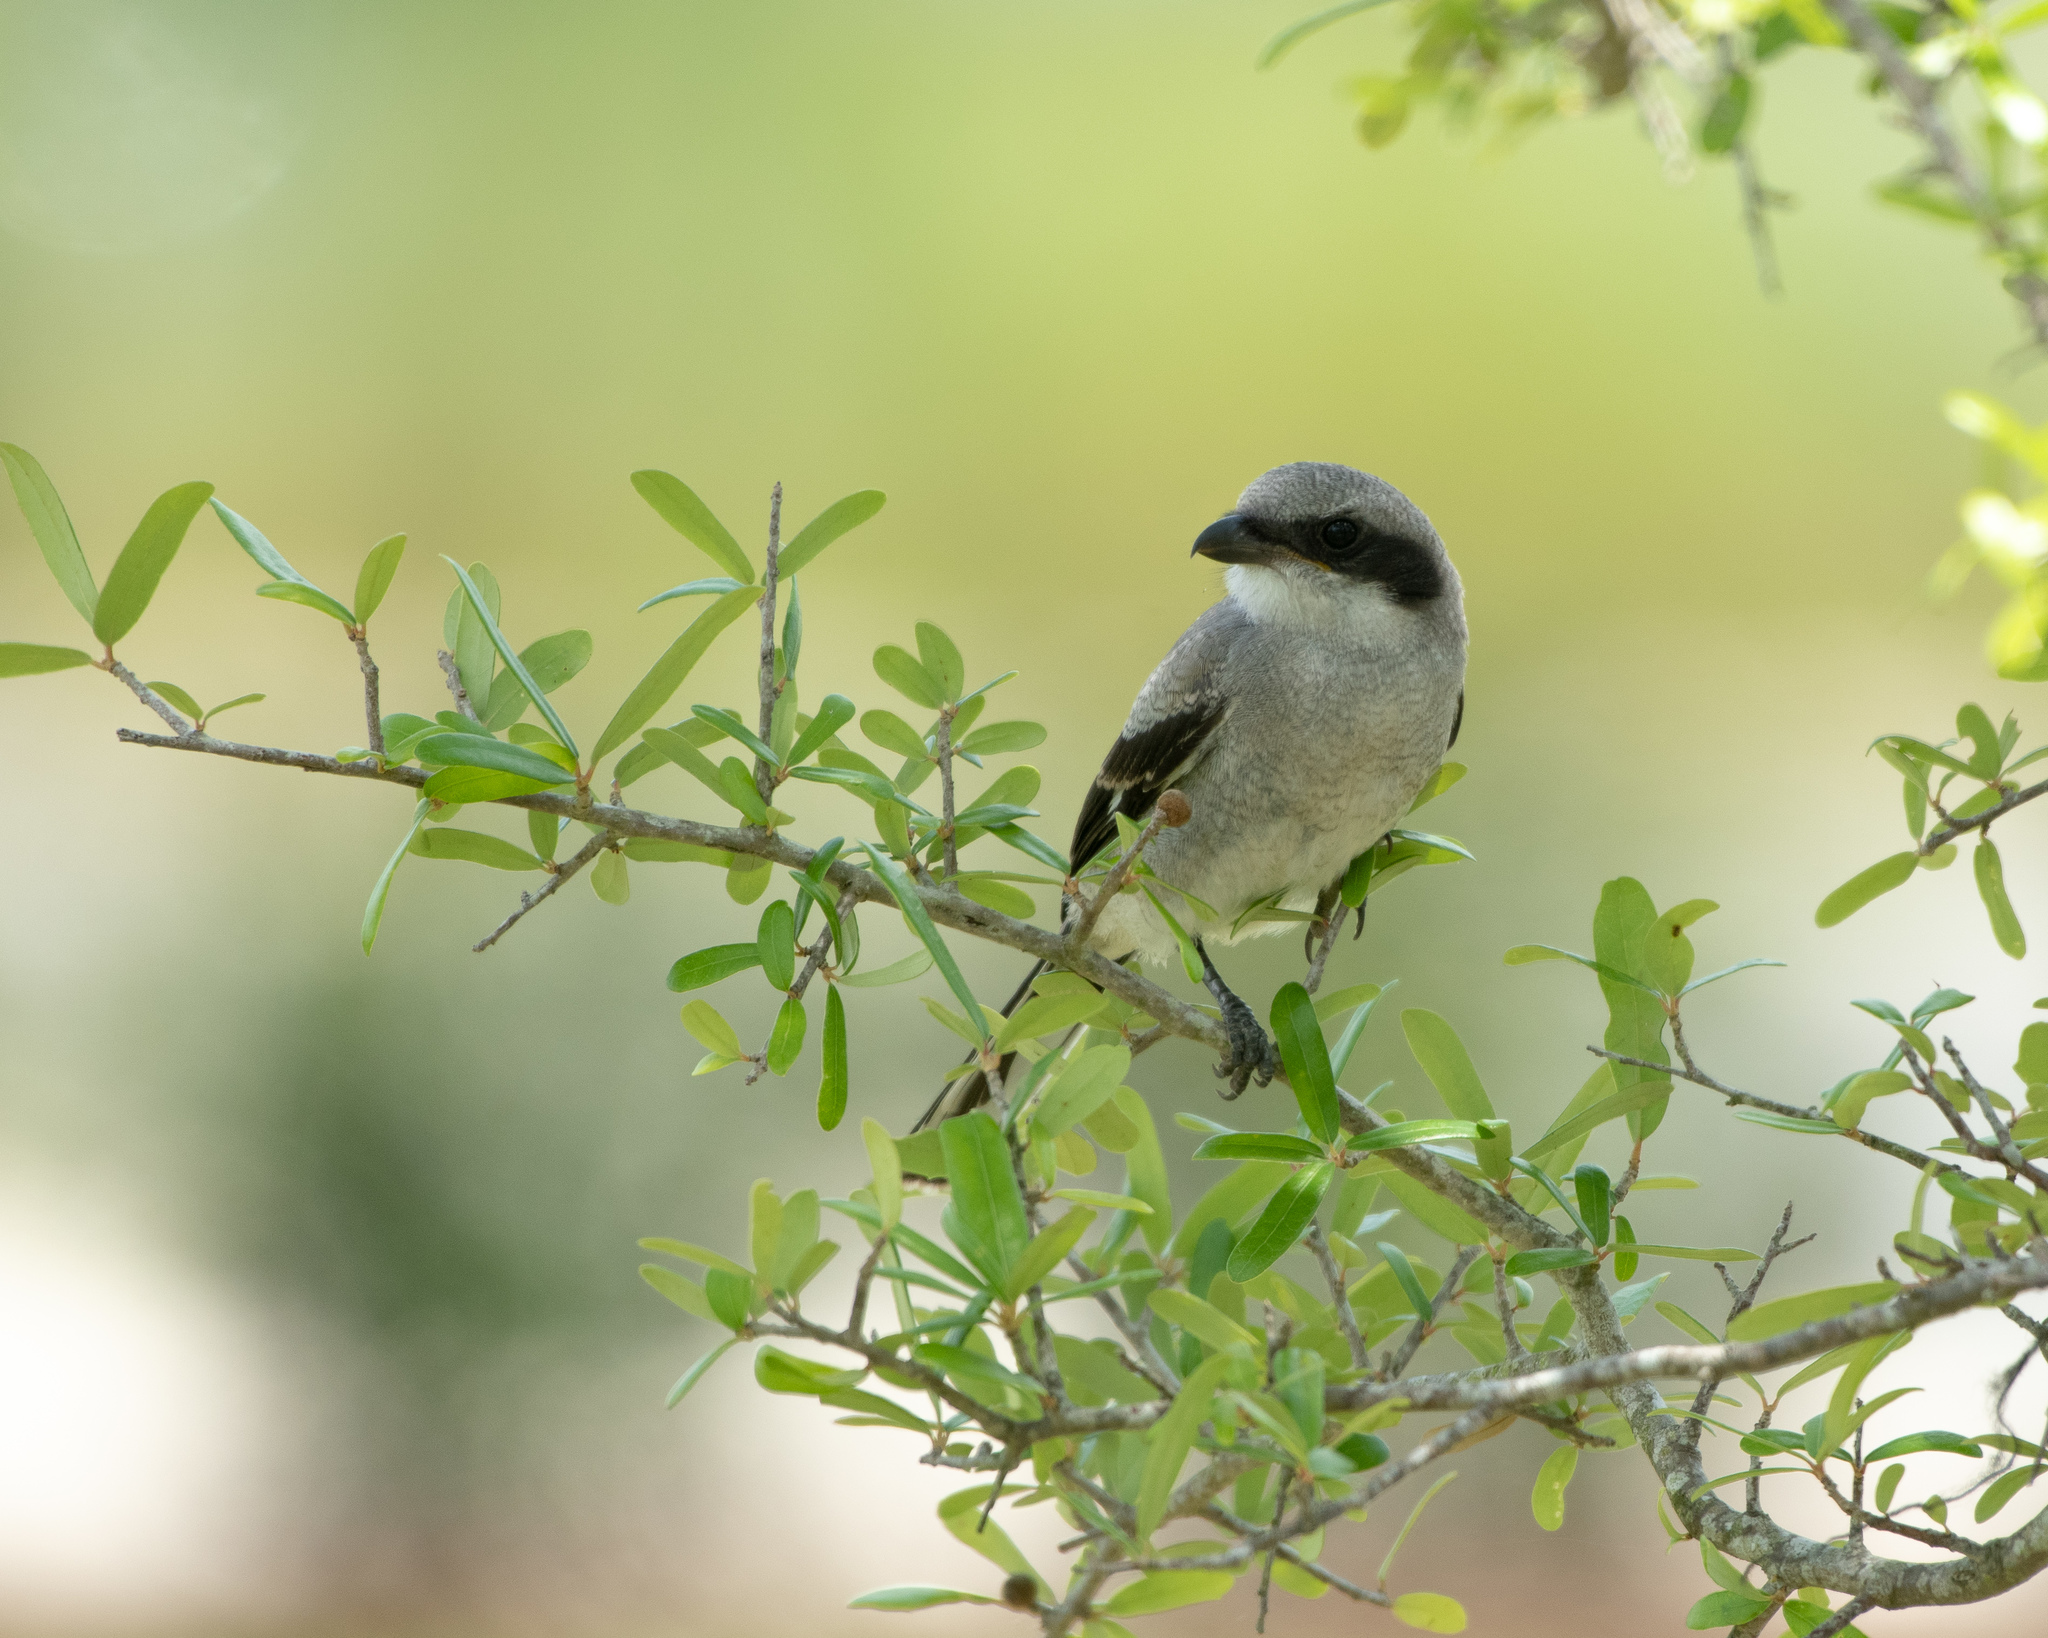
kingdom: Animalia
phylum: Chordata
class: Aves
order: Passeriformes
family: Laniidae
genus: Lanius
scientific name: Lanius ludovicianus
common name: Loggerhead shrike
